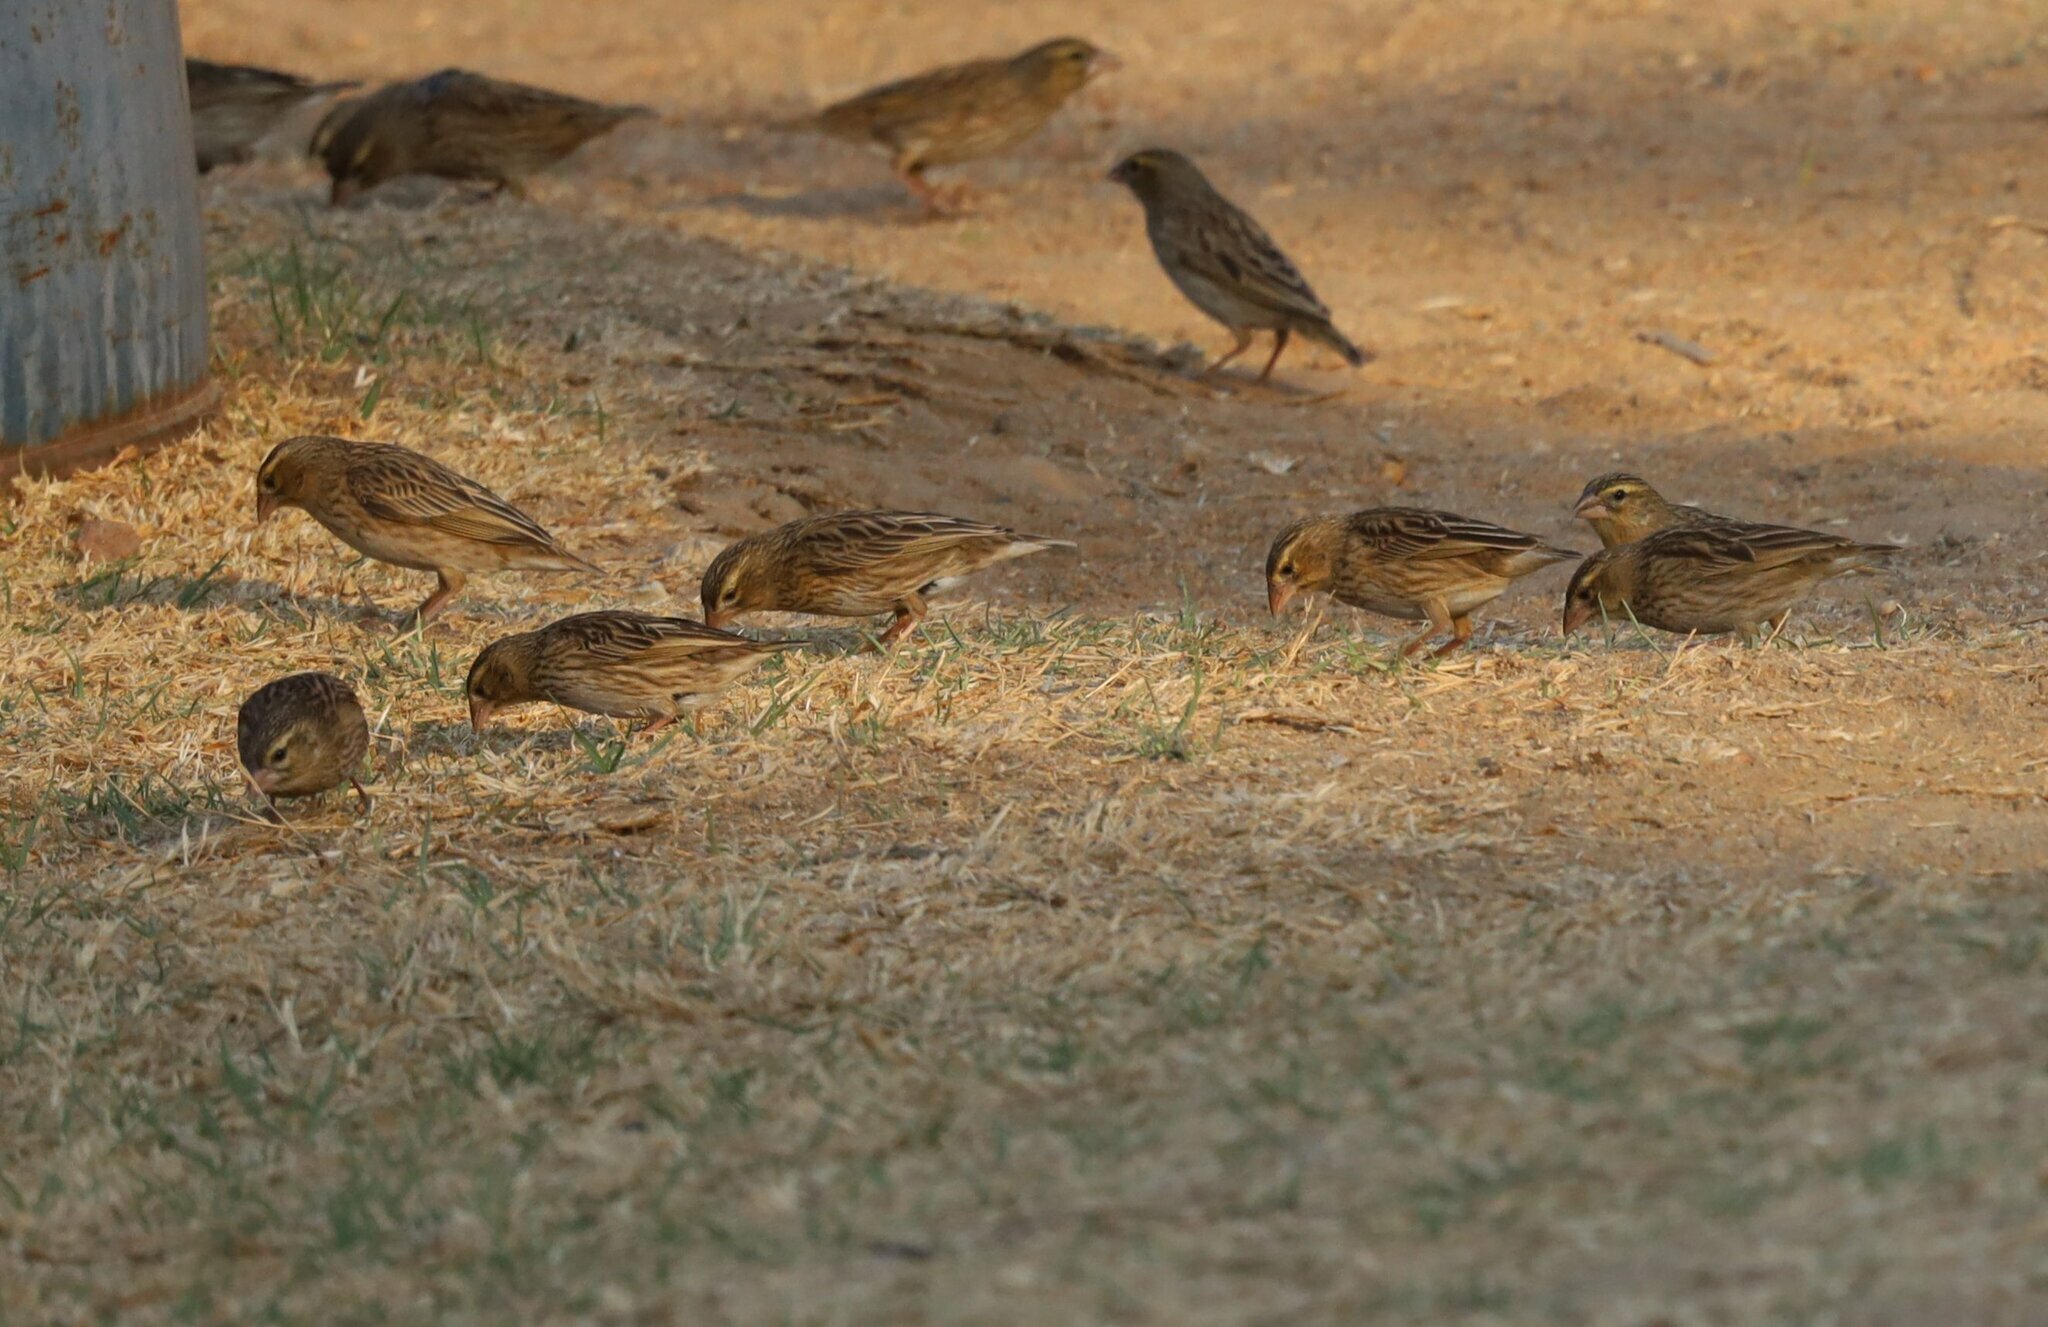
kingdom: Animalia
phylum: Chordata
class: Aves
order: Passeriformes
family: Ploceidae
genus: Euplectes
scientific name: Euplectes orix
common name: Southern red bishop
